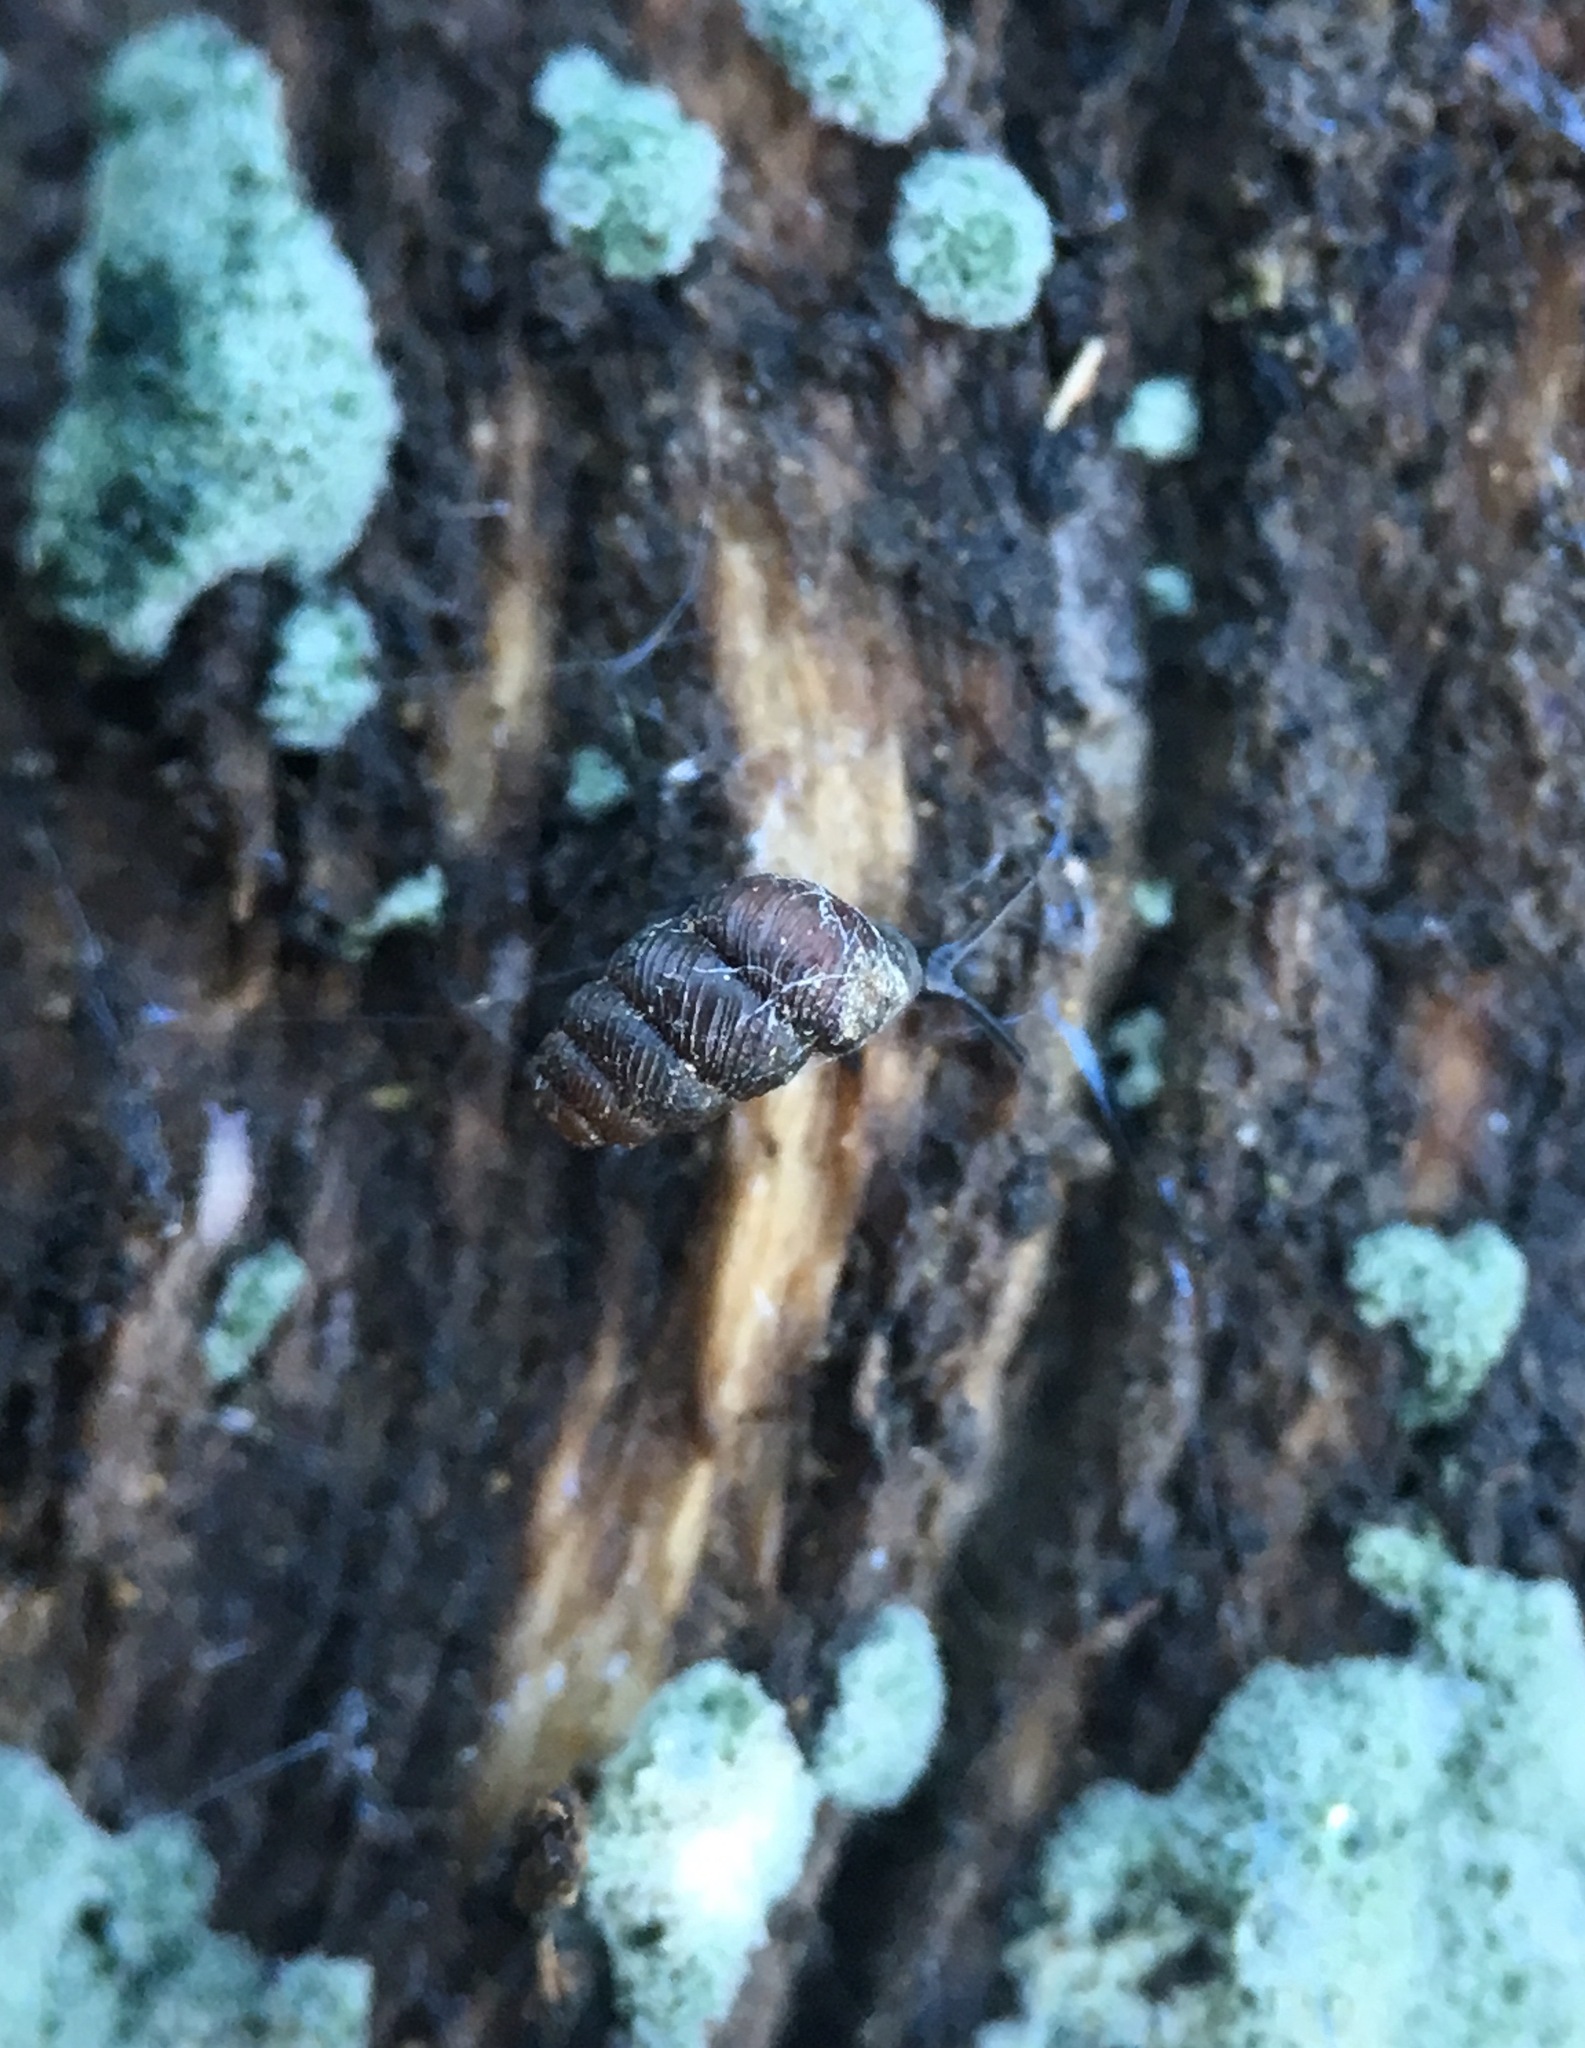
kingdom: Animalia
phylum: Mollusca
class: Gastropoda
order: Stylommatophora
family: Vertiginidae
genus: Vertigo
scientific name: Vertigo californica
